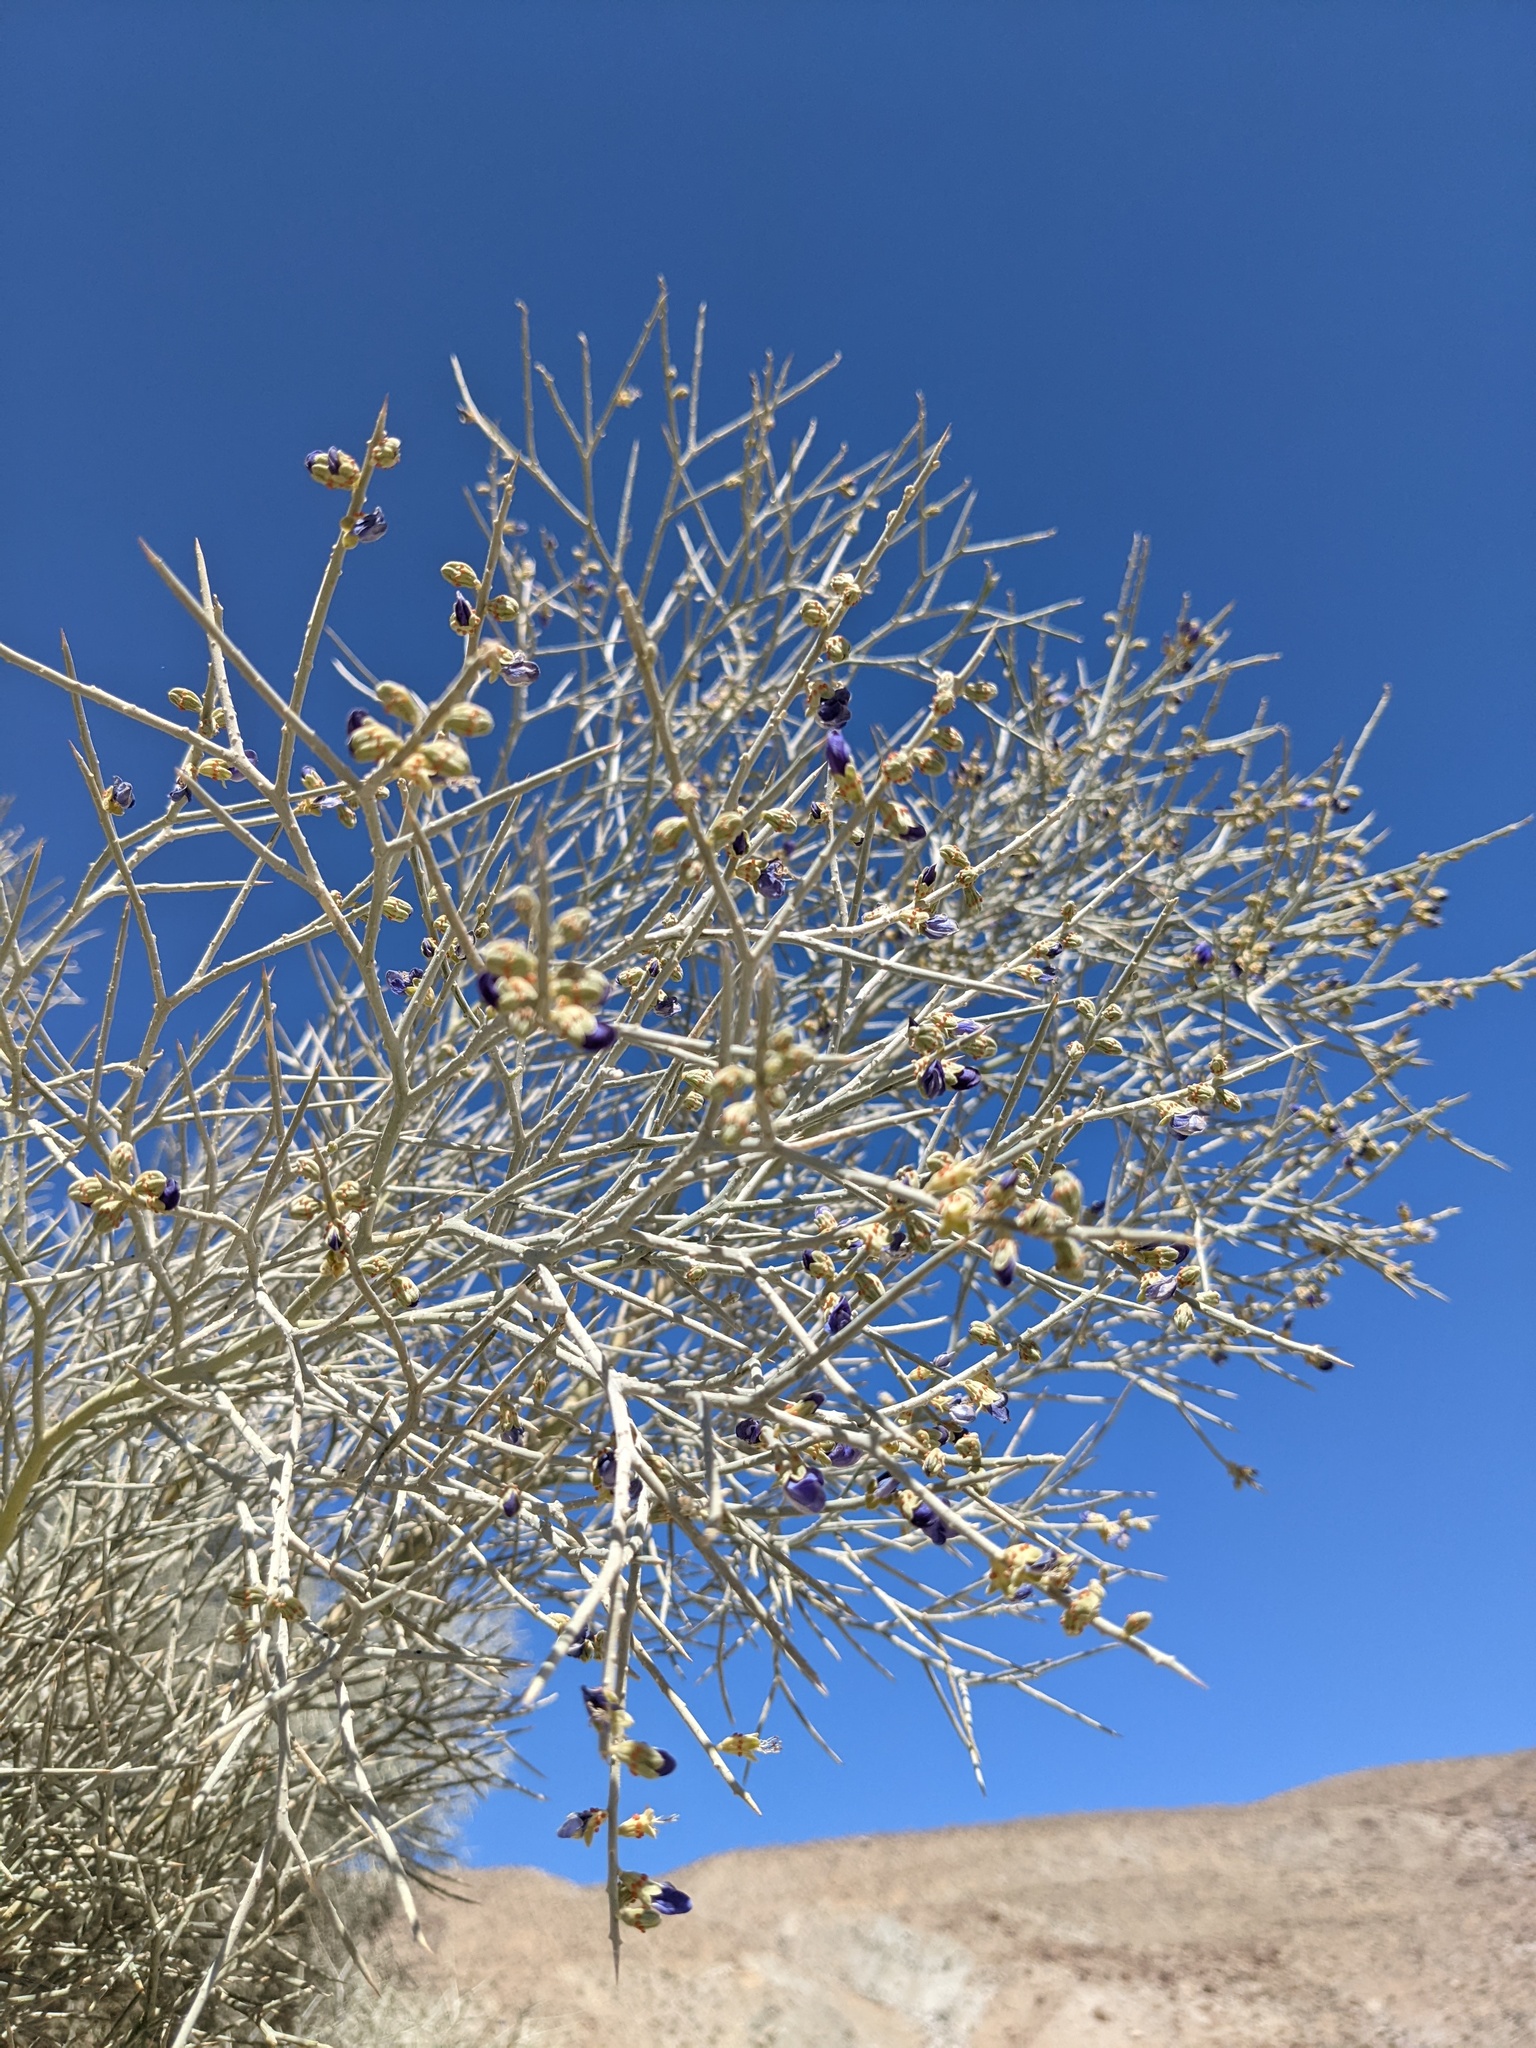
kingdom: Plantae
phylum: Tracheophyta
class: Magnoliopsida
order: Fabales
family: Fabaceae
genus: Psorothamnus
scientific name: Psorothamnus spinosus
